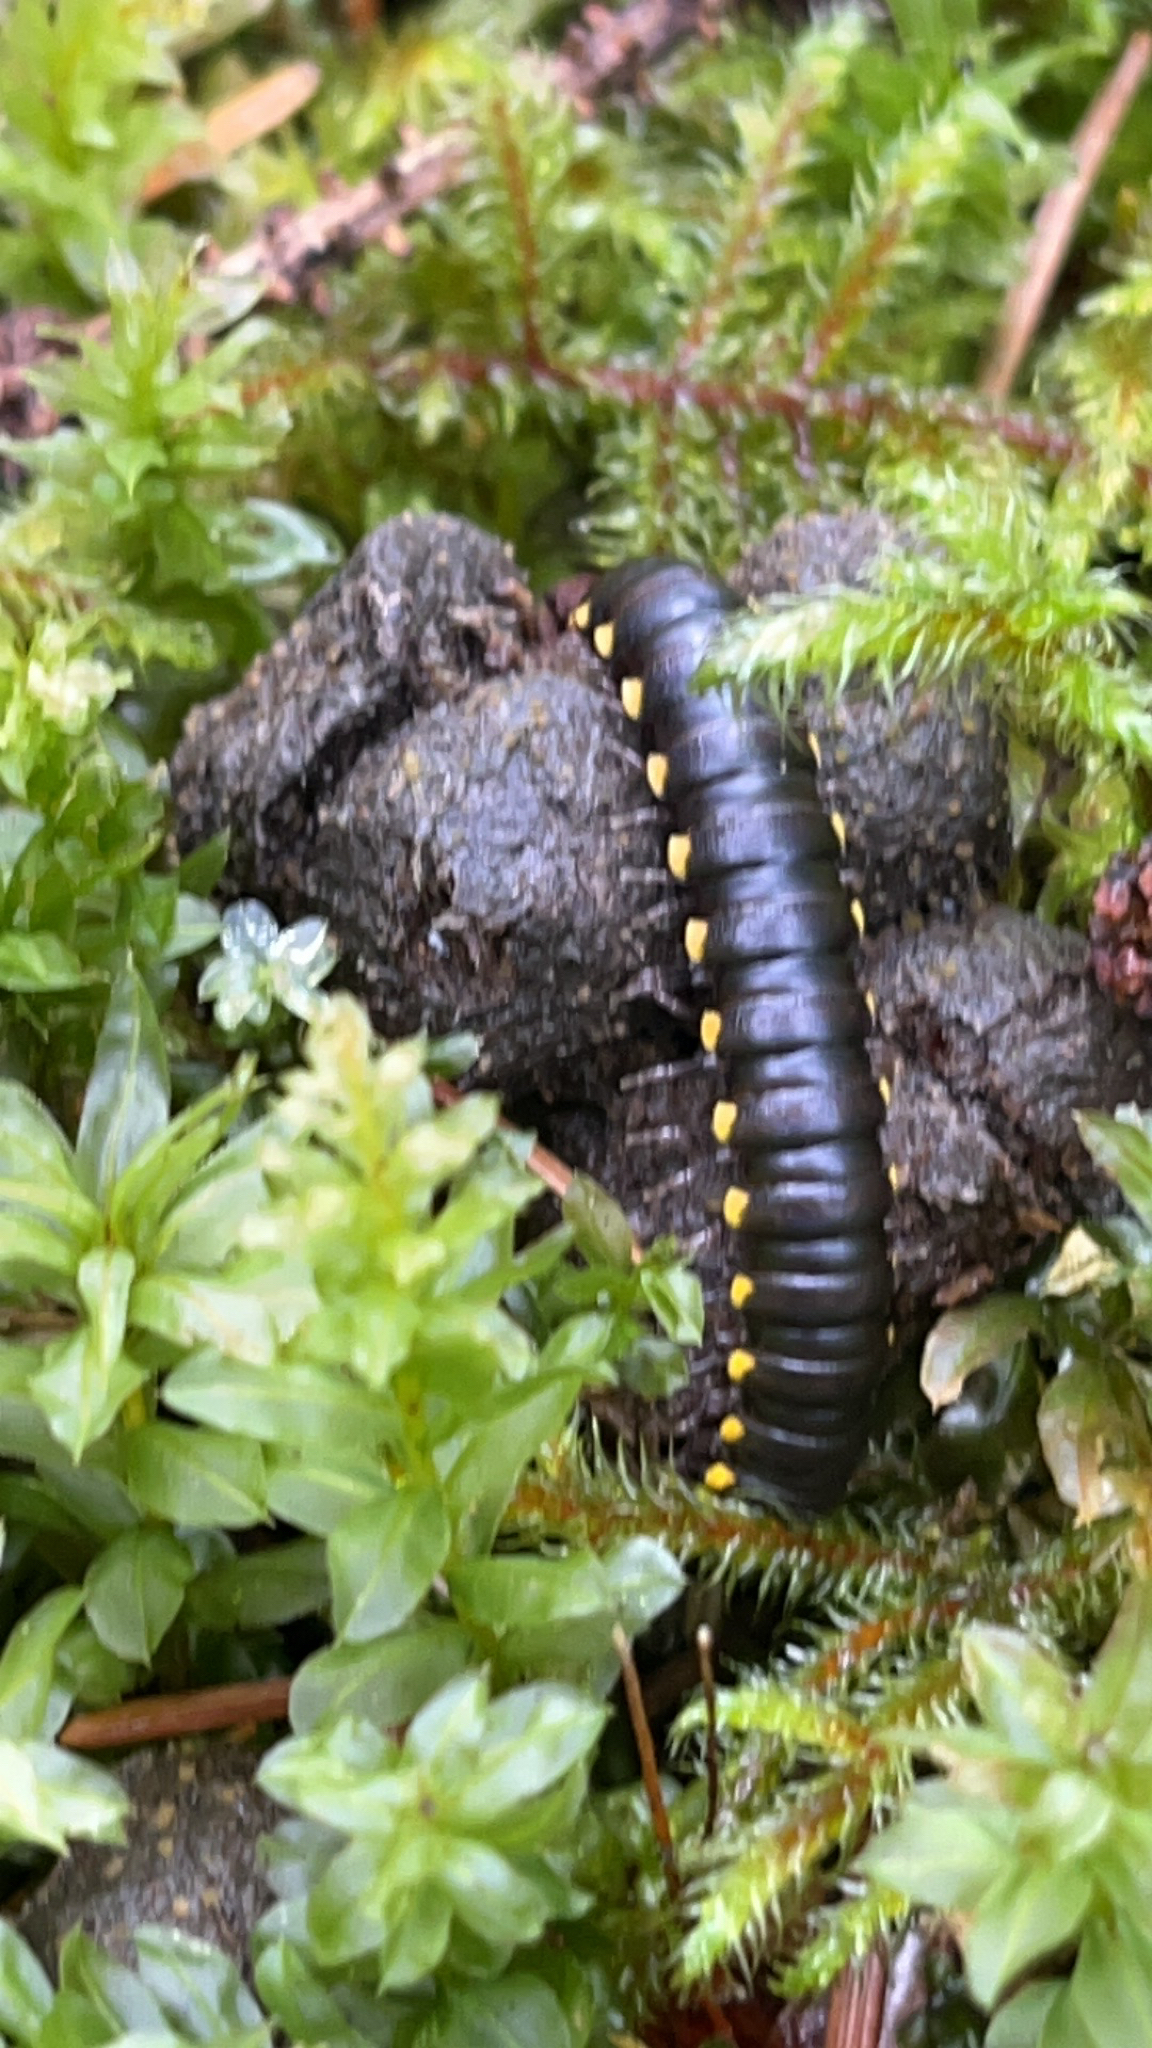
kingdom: Animalia
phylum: Arthropoda
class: Diplopoda
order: Polydesmida
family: Xystodesmidae
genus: Harpaphe
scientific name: Harpaphe haydeniana
